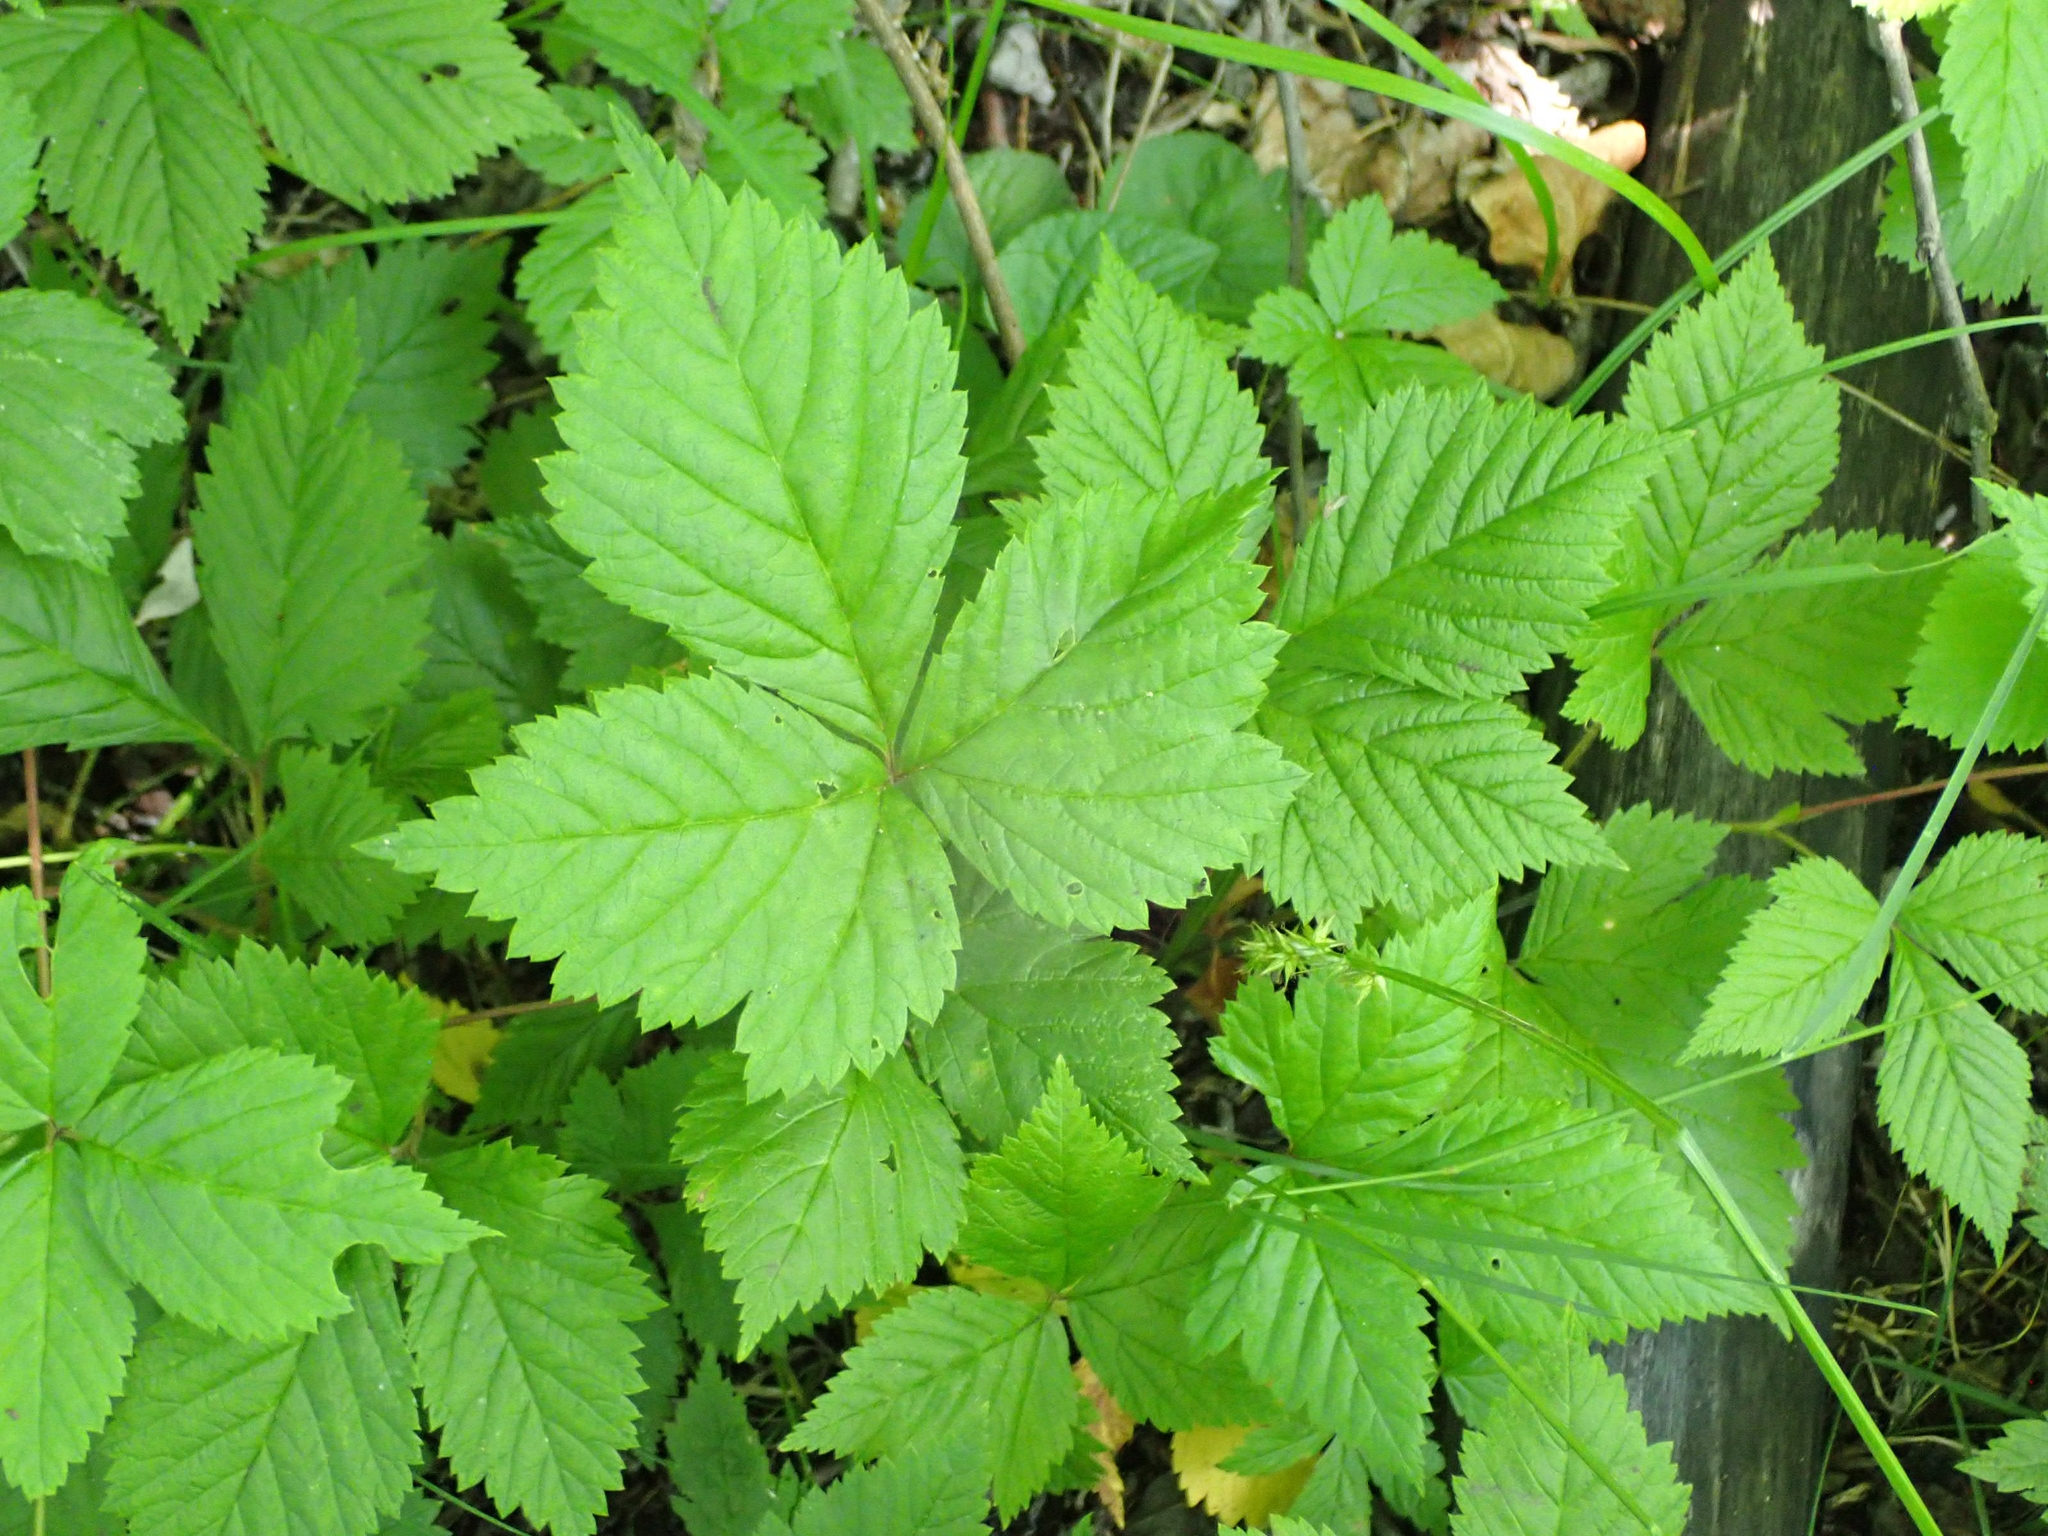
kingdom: Plantae
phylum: Tracheophyta
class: Magnoliopsida
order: Rosales
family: Rosaceae
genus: Rubus
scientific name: Rubus pubescens
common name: Dwarf raspberry
